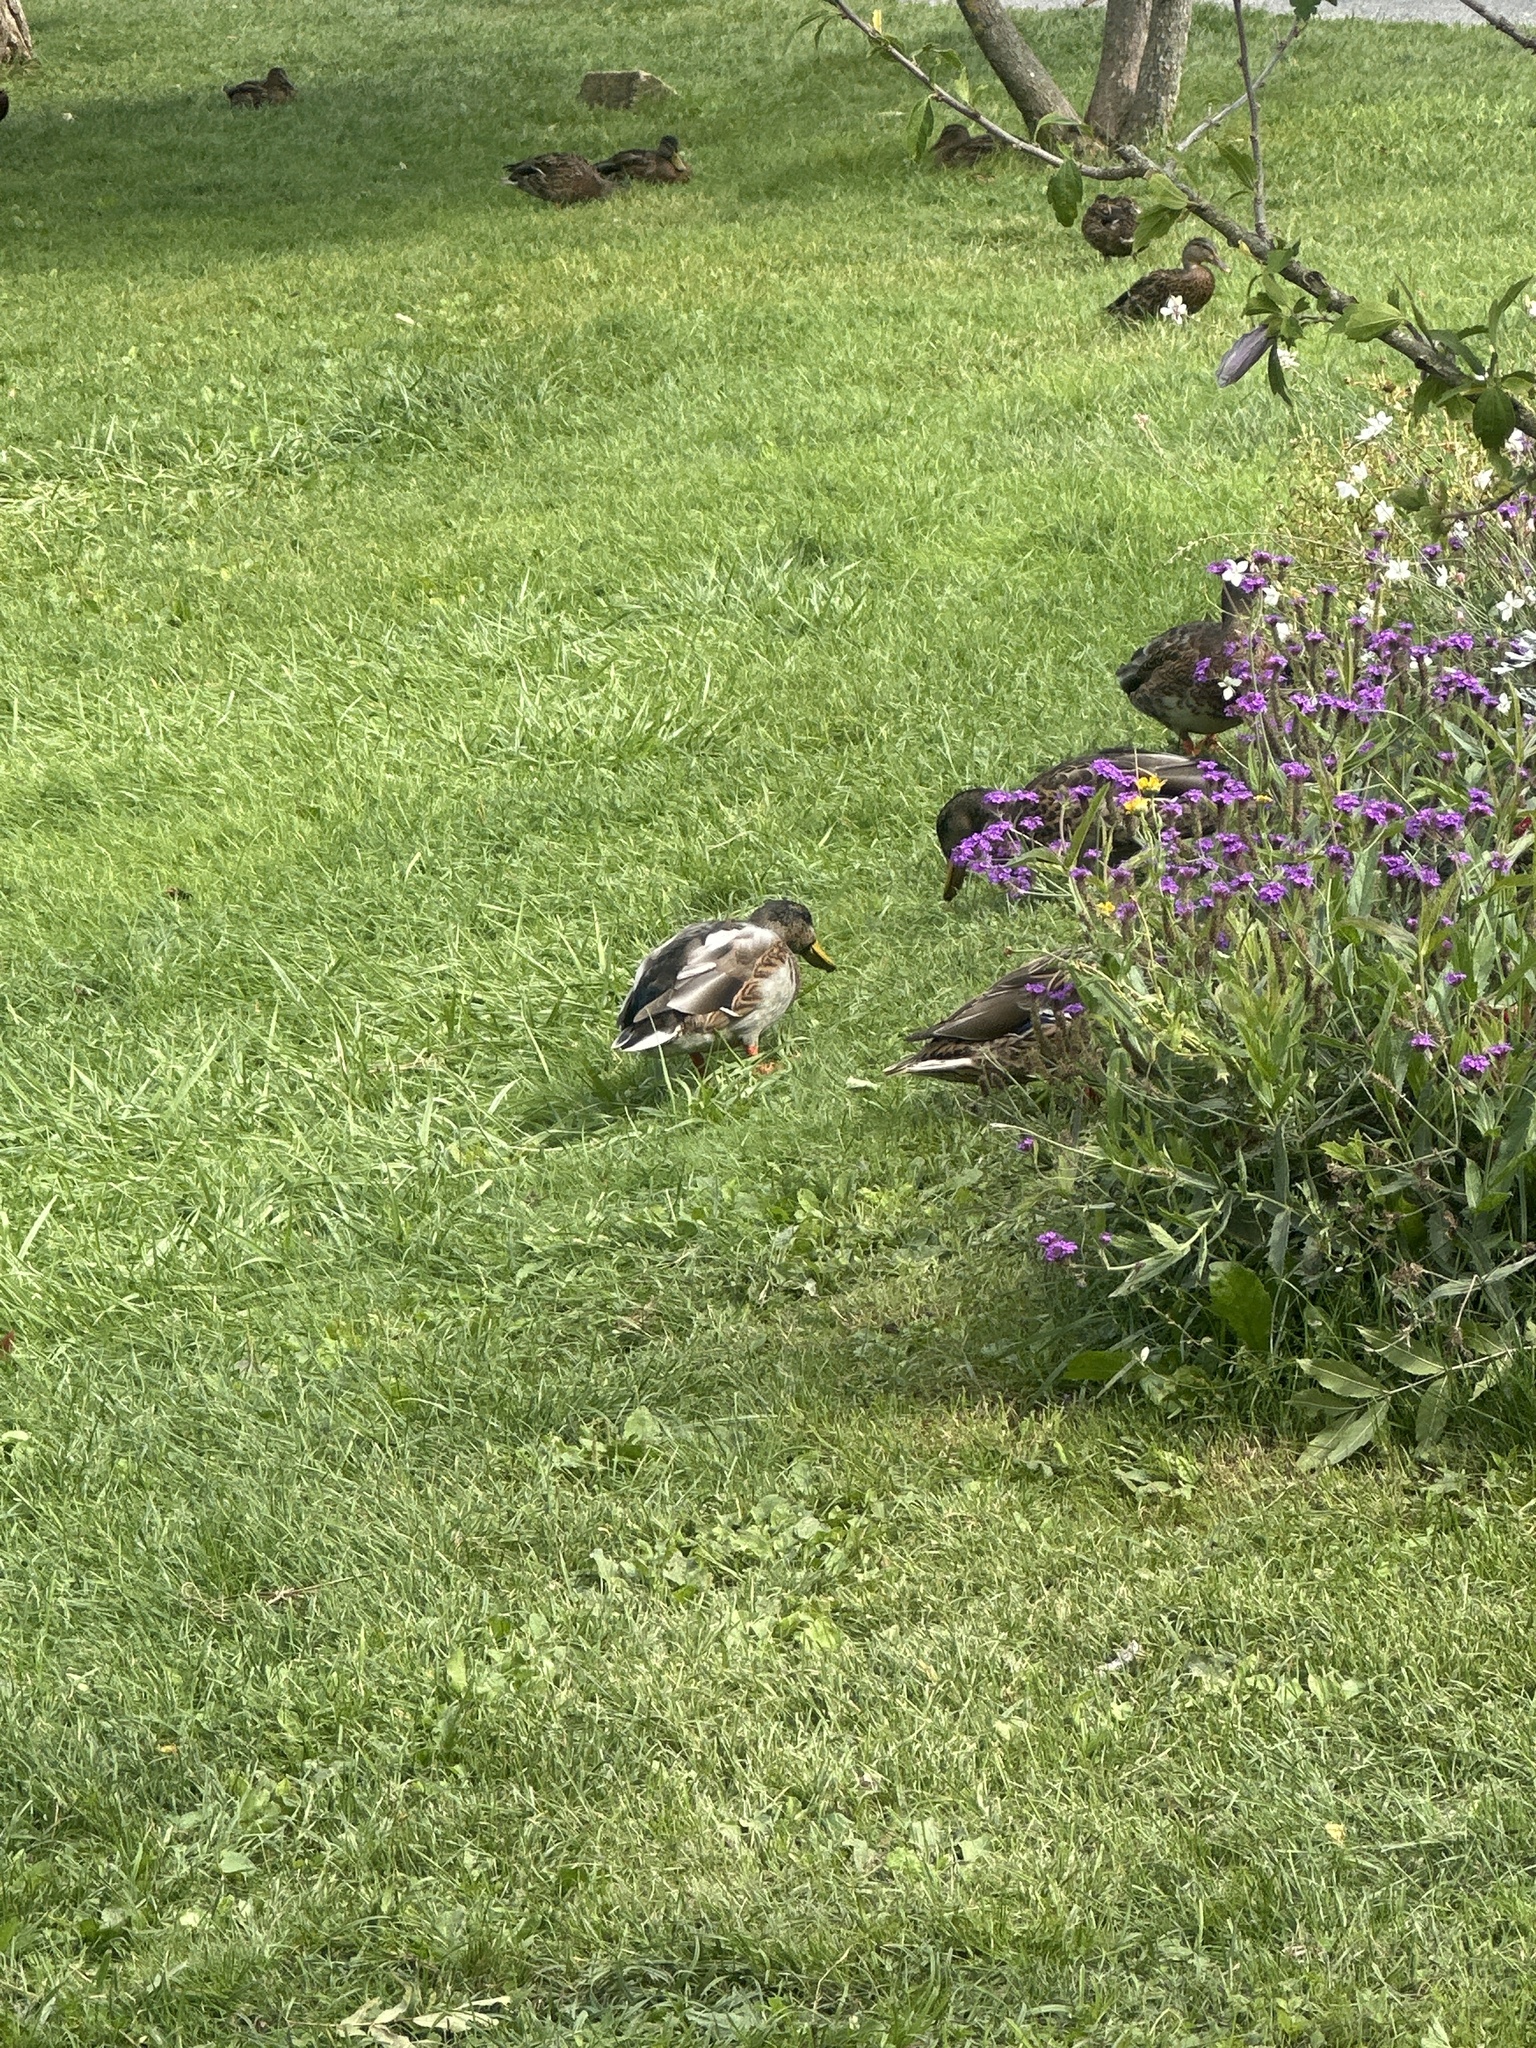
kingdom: Animalia
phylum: Chordata
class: Aves
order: Anseriformes
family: Anatidae
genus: Anas
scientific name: Anas platyrhynchos
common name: Mallard
